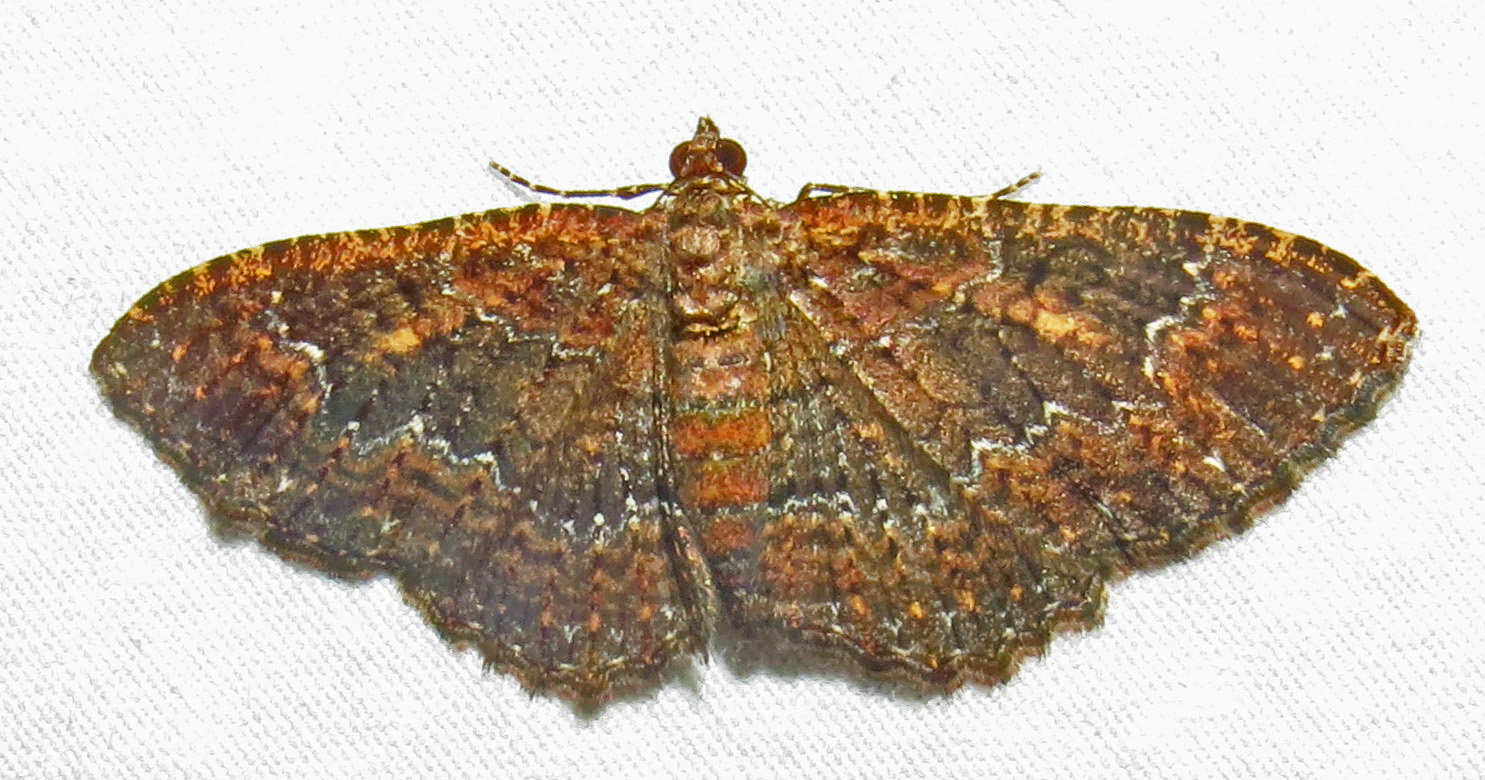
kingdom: Animalia
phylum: Arthropoda
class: Insecta
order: Lepidoptera
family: Geometridae
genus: Disclisioprocta
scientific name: Disclisioprocta stellata
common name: Somber carpet
